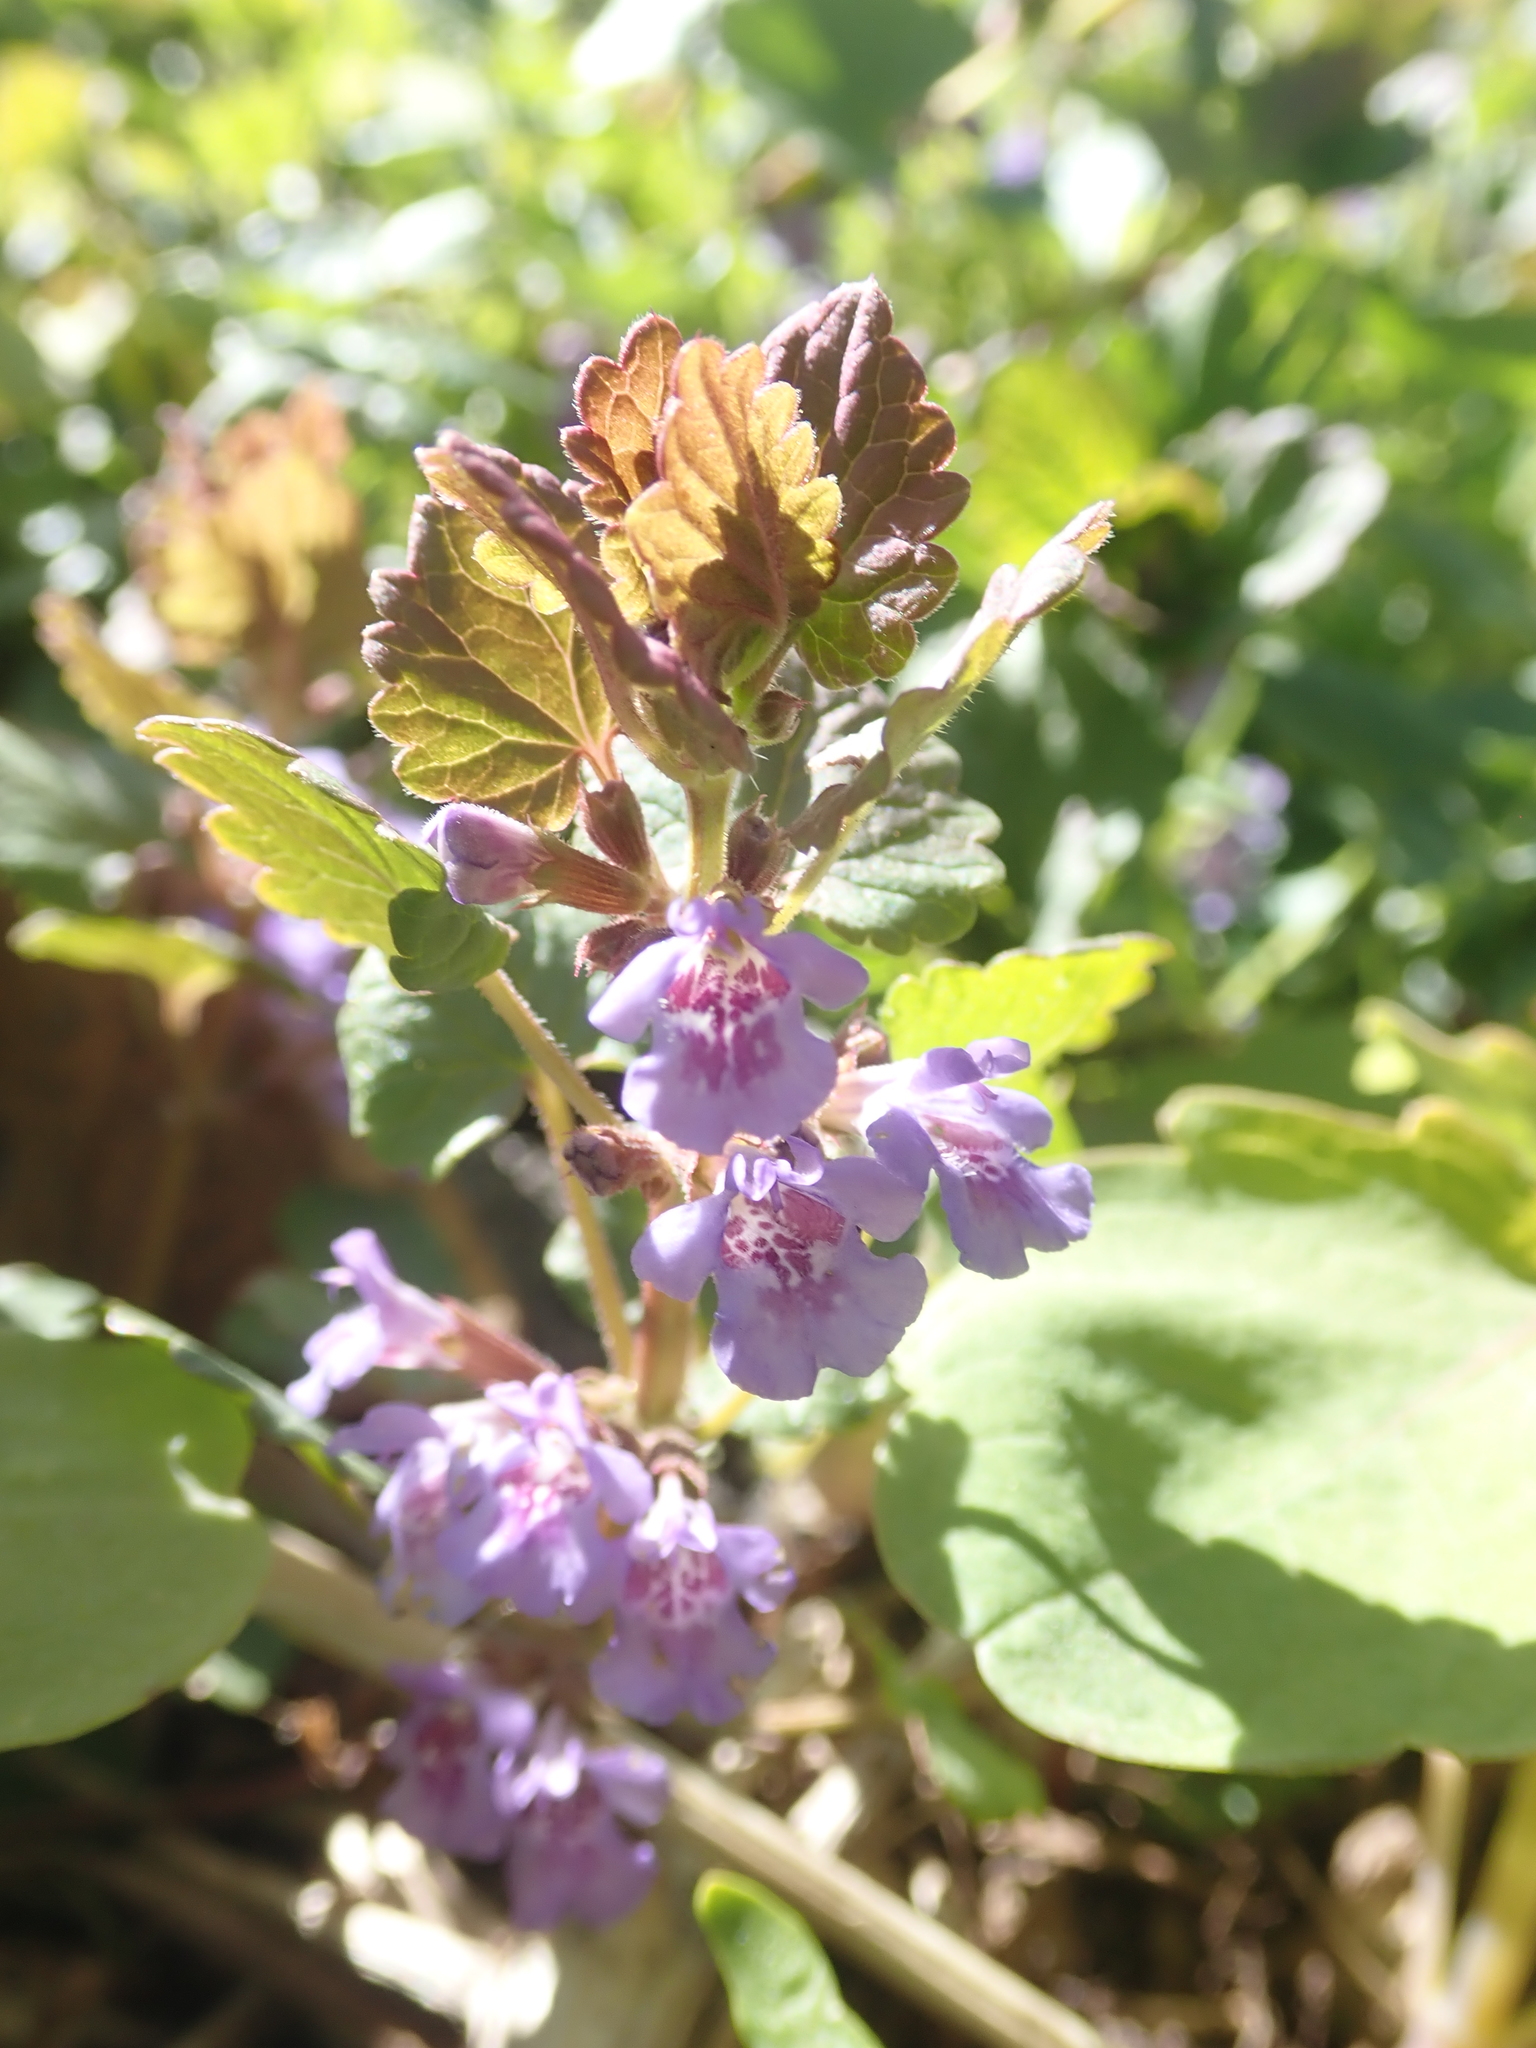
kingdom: Plantae
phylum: Tracheophyta
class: Magnoliopsida
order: Lamiales
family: Lamiaceae
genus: Glechoma
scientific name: Glechoma hederacea
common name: Ground ivy
